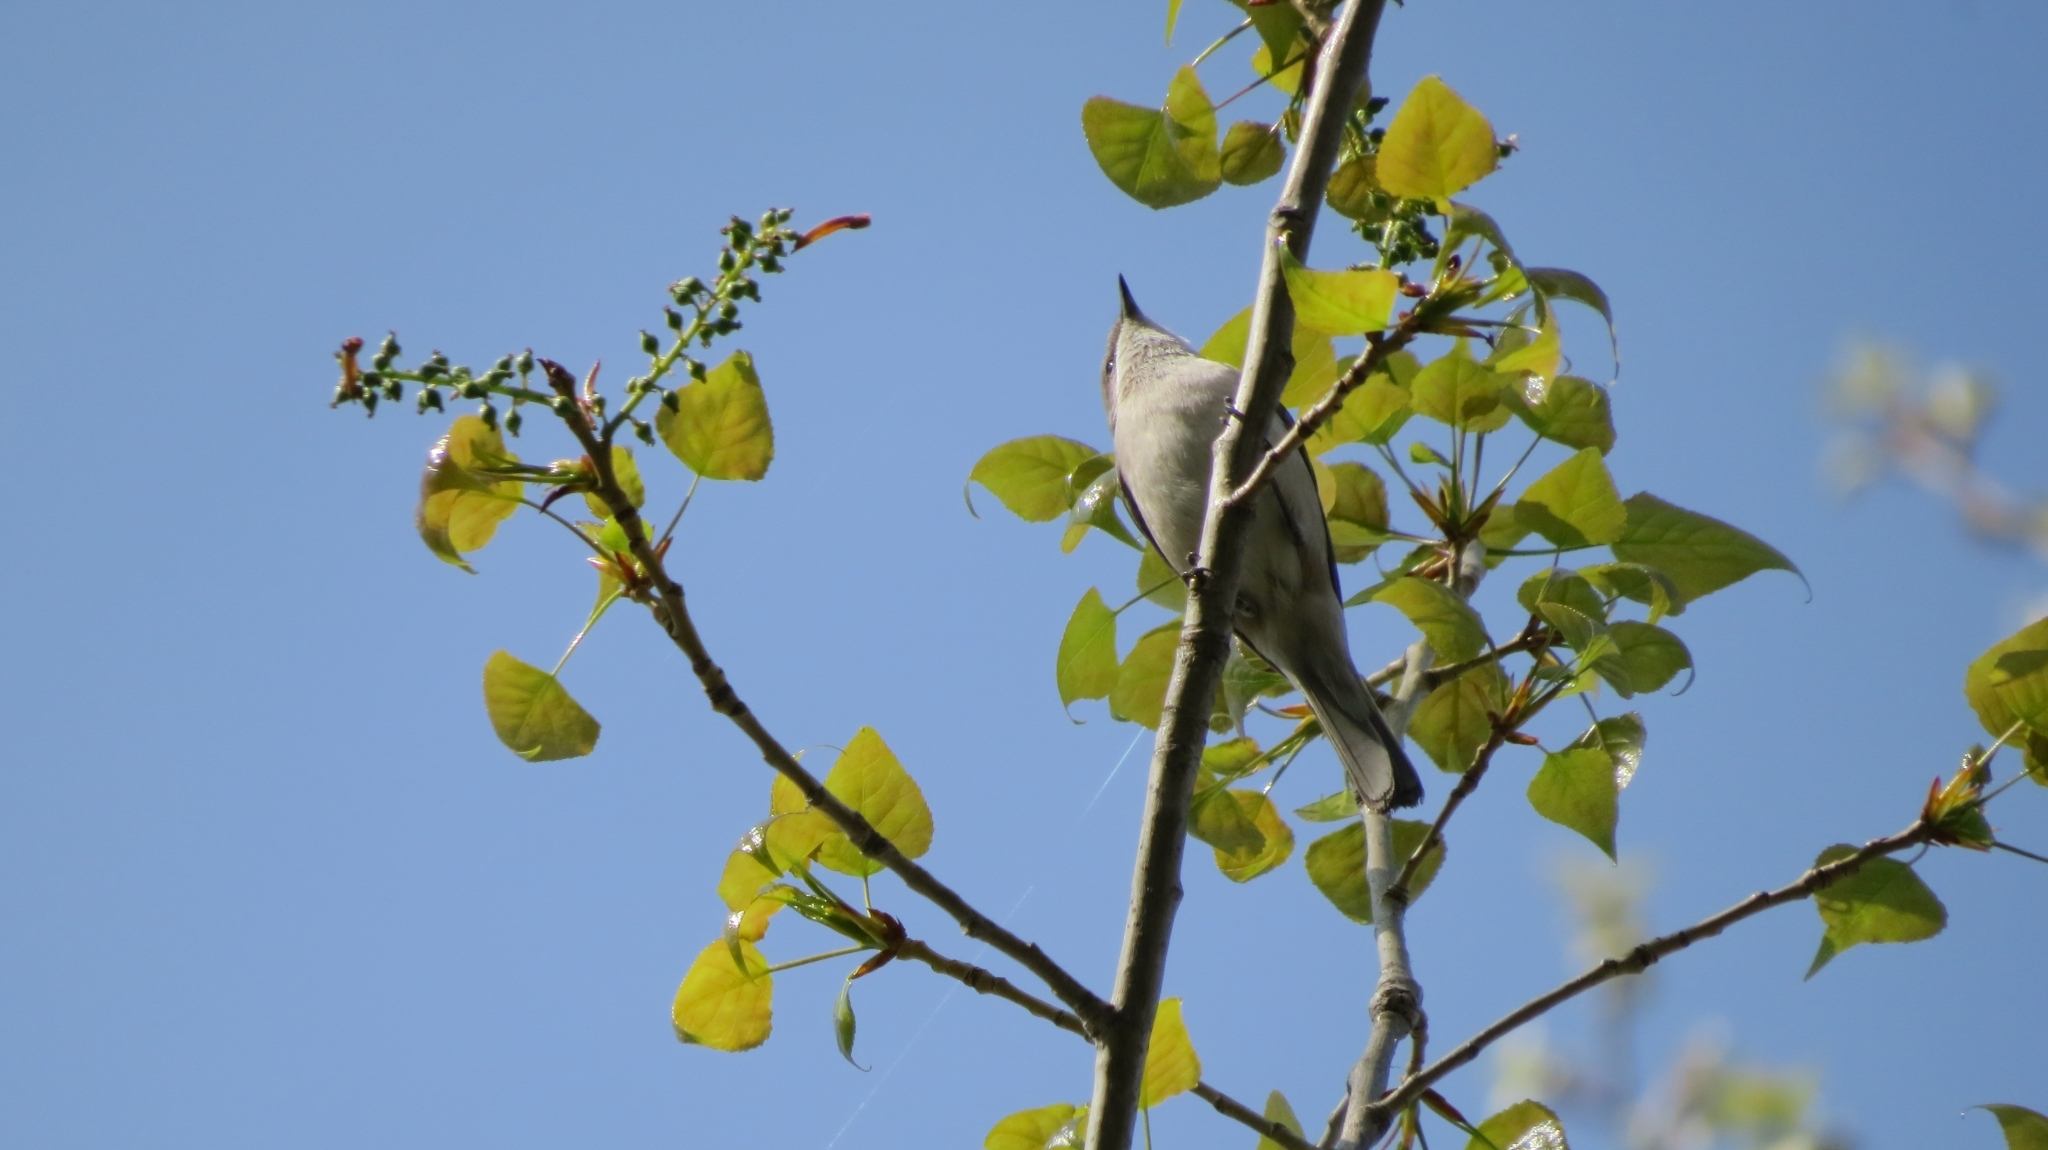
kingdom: Animalia
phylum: Chordata
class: Aves
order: Passeriformes
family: Sylviidae
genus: Sylvia
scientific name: Sylvia curruca
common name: Lesser whitethroat
